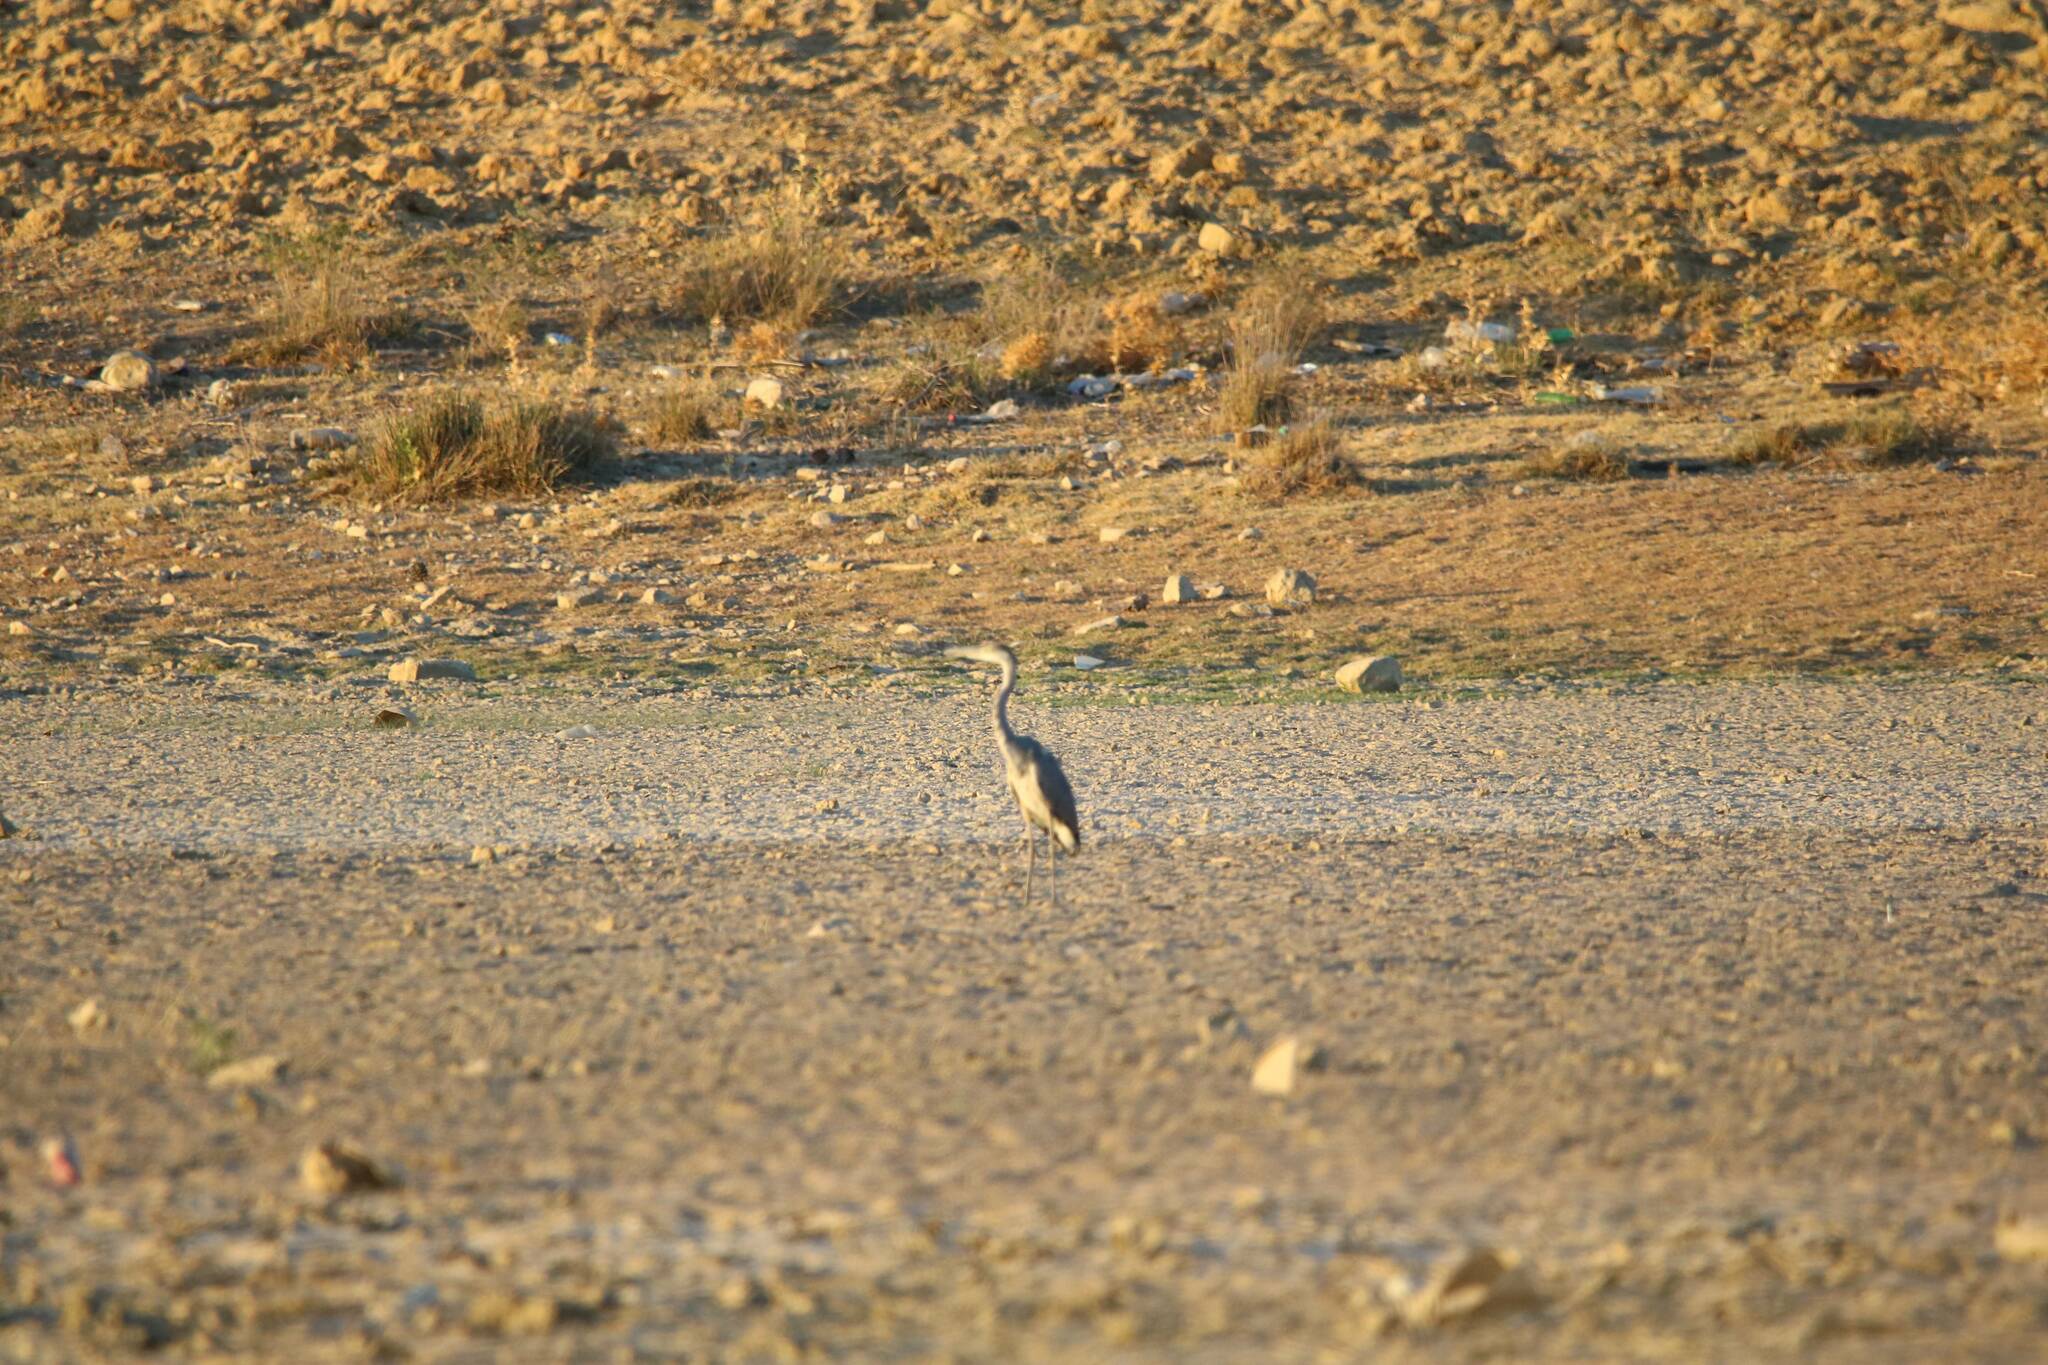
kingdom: Animalia
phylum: Chordata
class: Aves
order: Pelecaniformes
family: Ardeidae
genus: Ardea
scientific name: Ardea cinerea
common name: Grey heron
